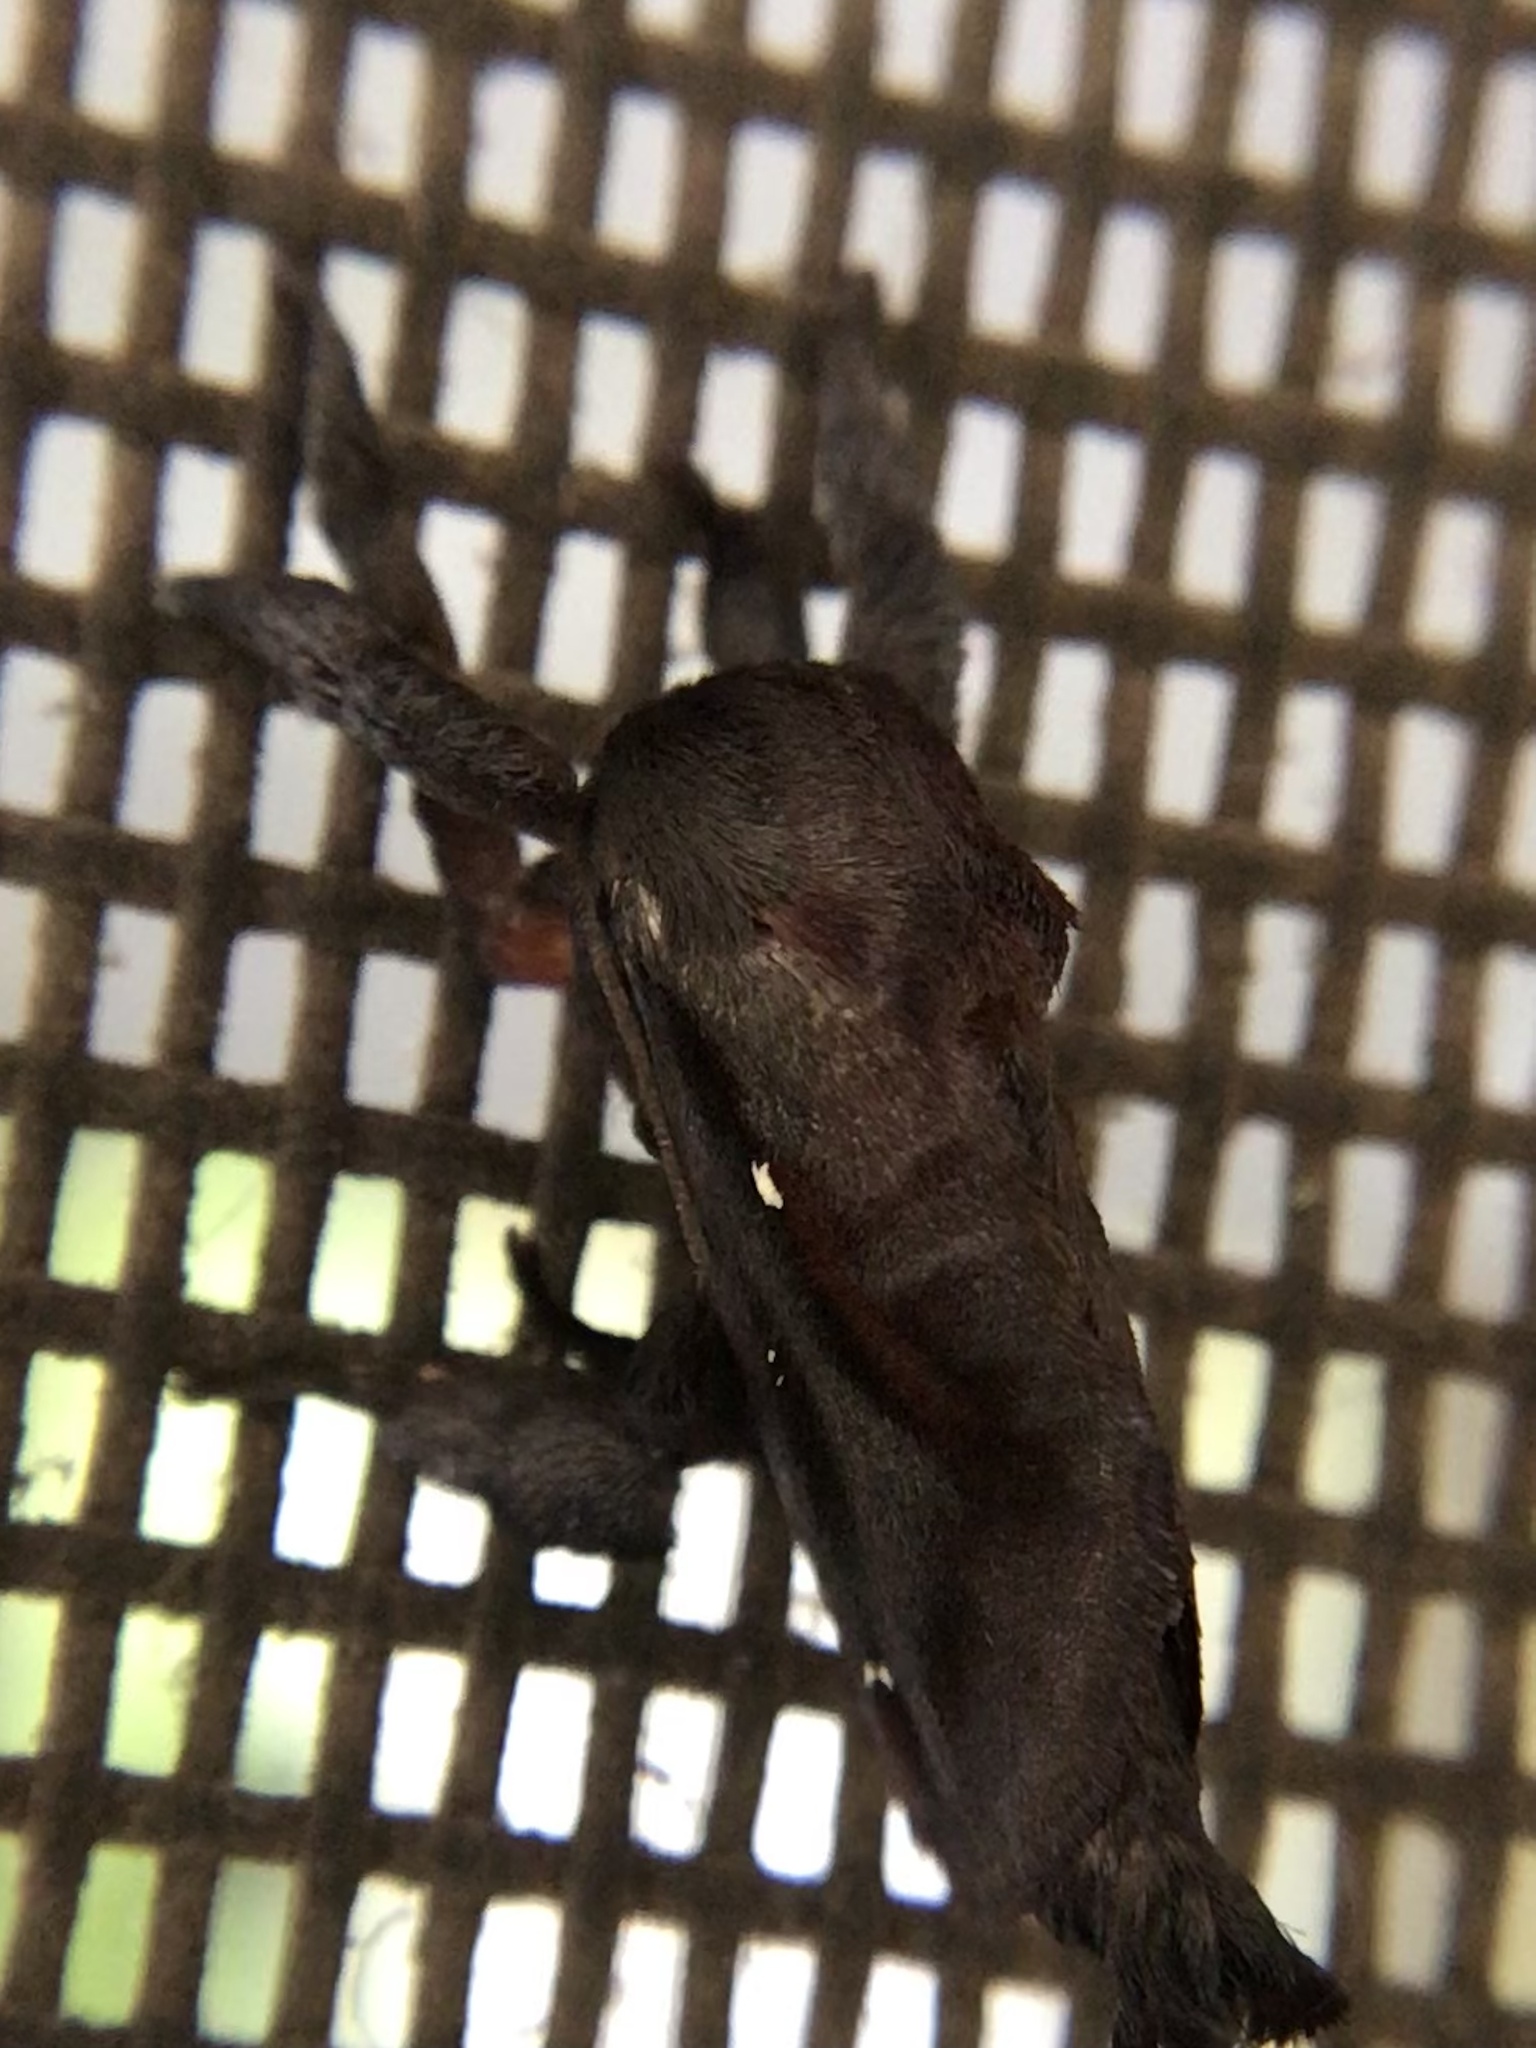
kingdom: Animalia
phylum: Arthropoda
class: Insecta
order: Lepidoptera
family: Limacodidae
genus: Acharia
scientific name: Acharia stimulea
